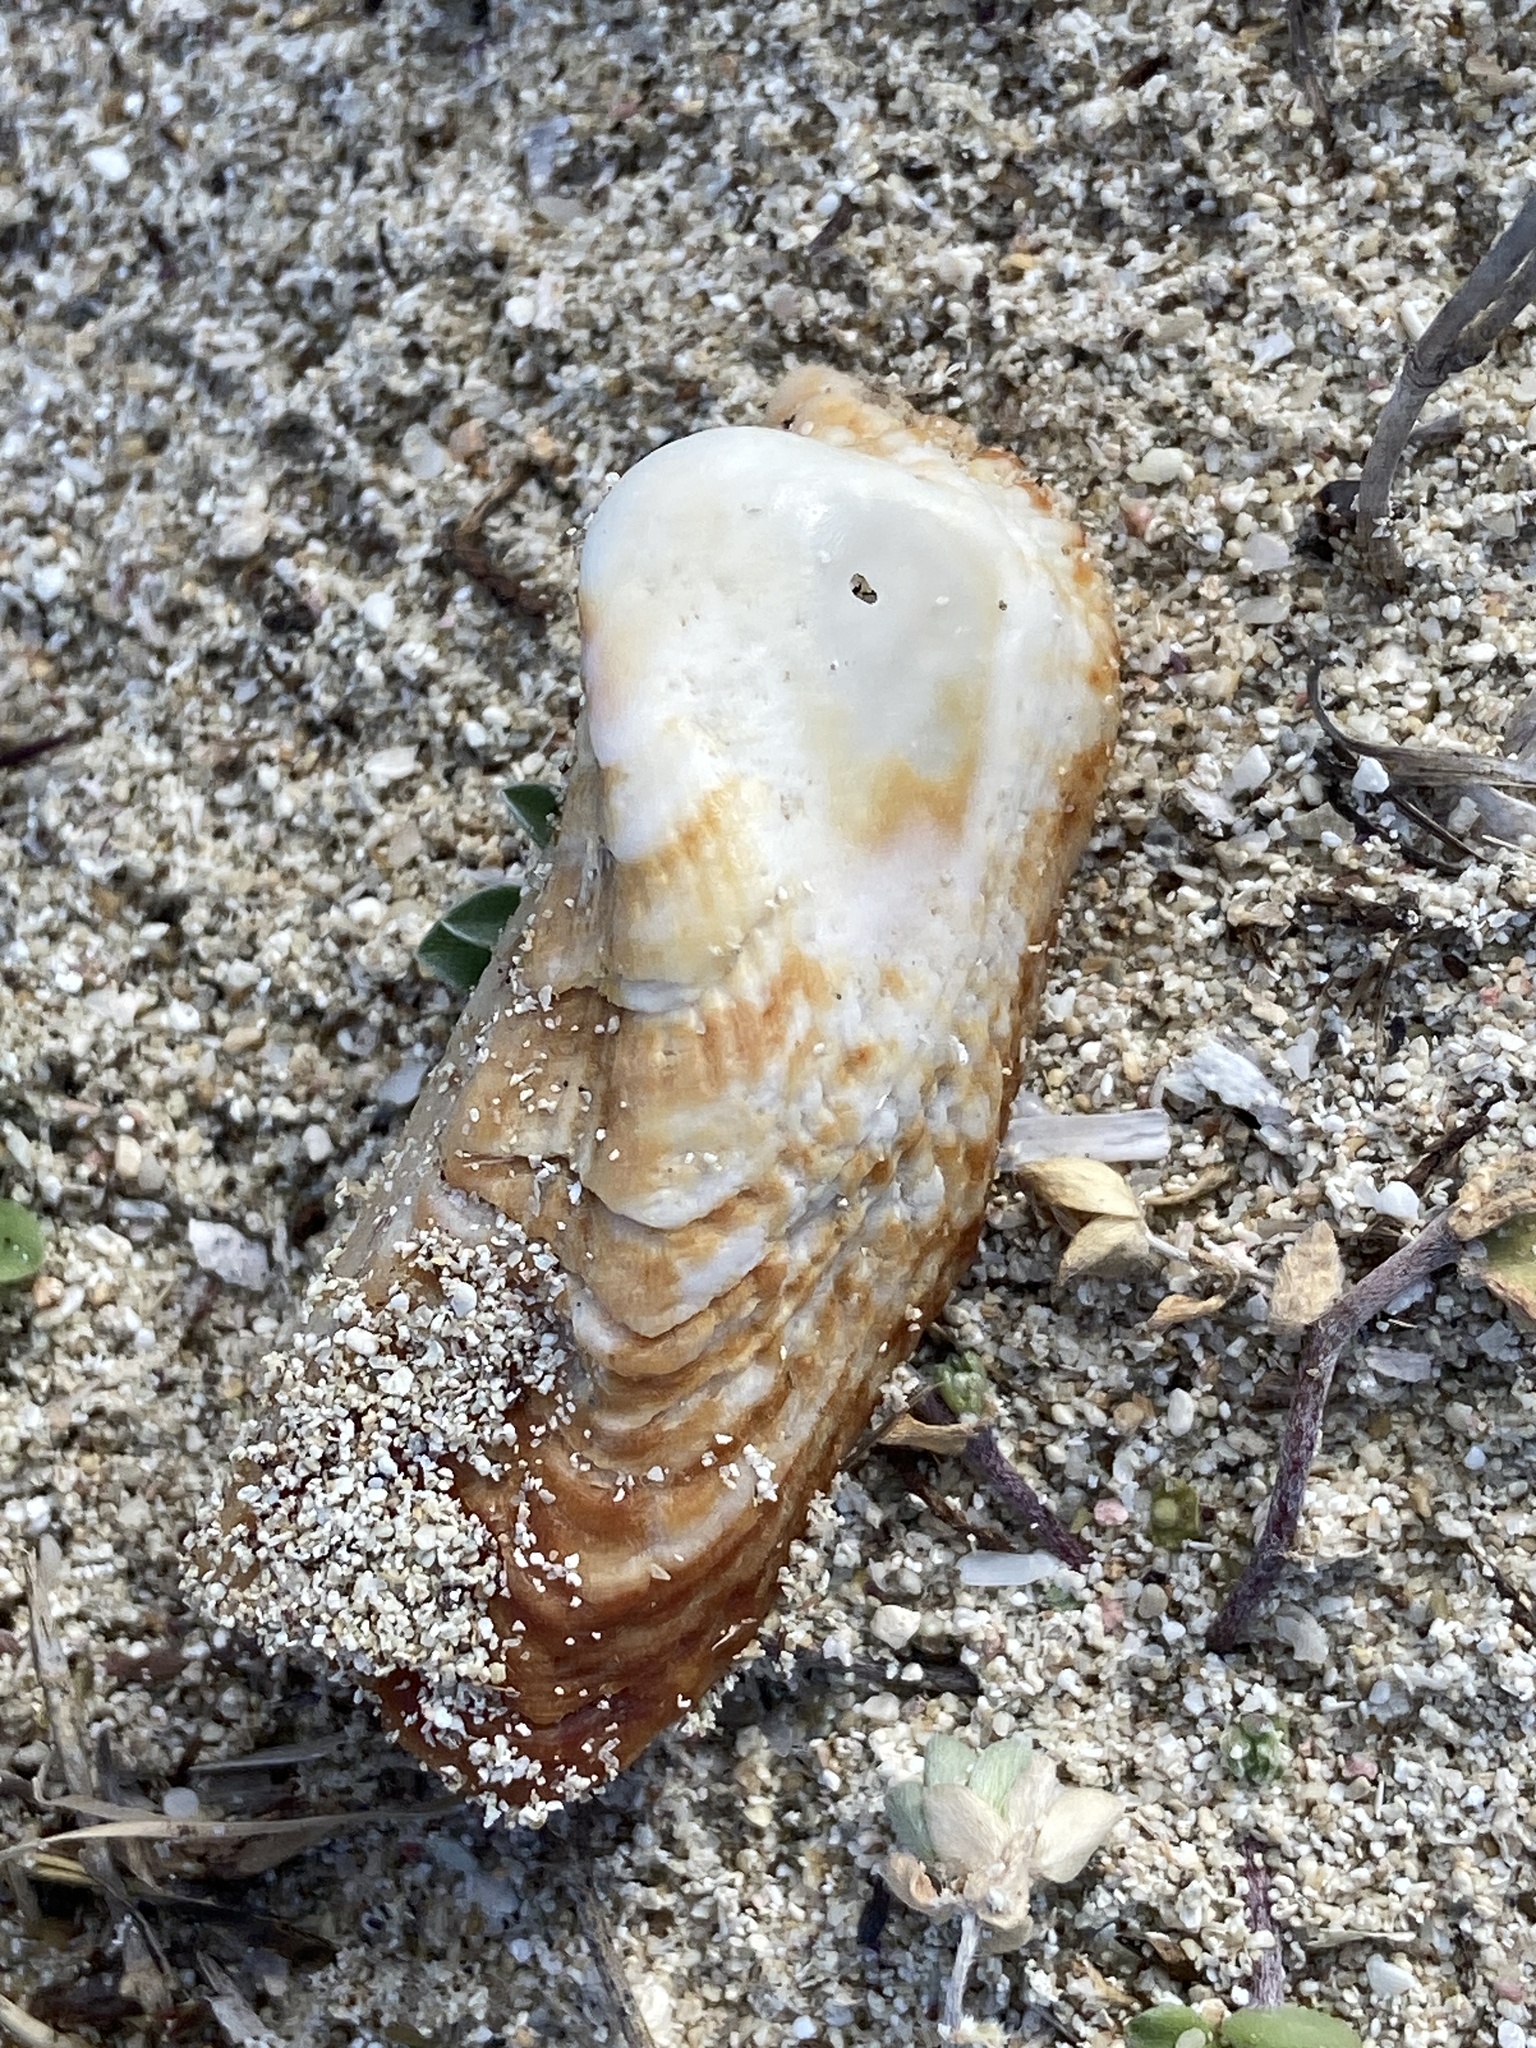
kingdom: Animalia
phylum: Mollusca
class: Bivalvia
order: Arcida
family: Arcidae
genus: Arca
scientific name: Arca noae
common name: Noah's arch
